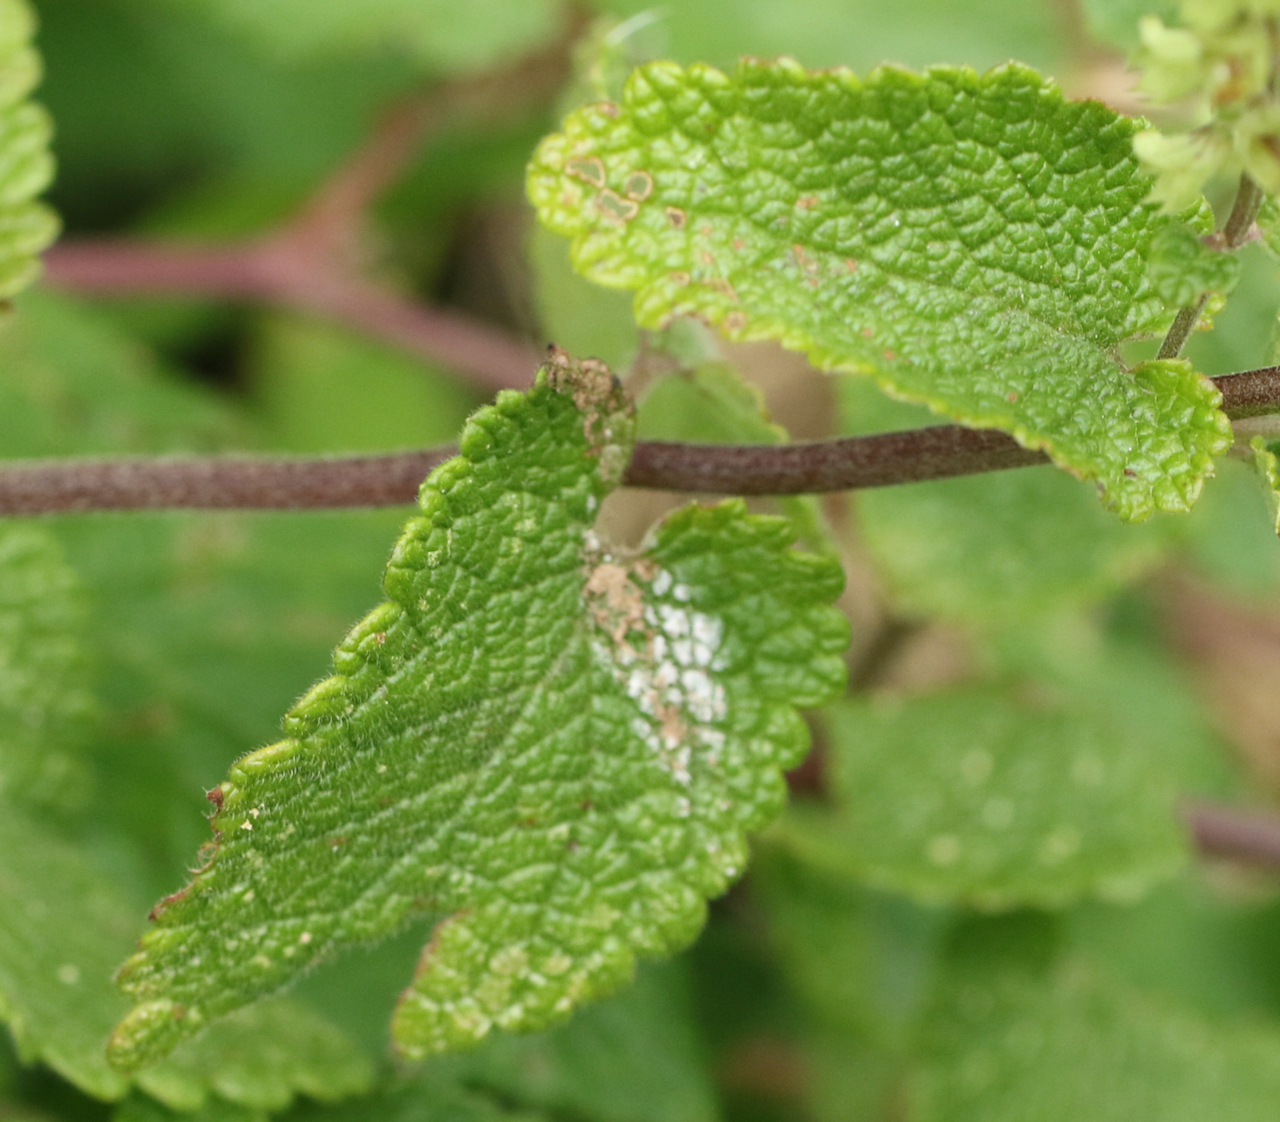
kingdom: Plantae
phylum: Tracheophyta
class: Magnoliopsida
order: Lamiales
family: Lamiaceae
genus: Teucrium
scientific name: Teucrium scorodonia
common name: Woodland germander
